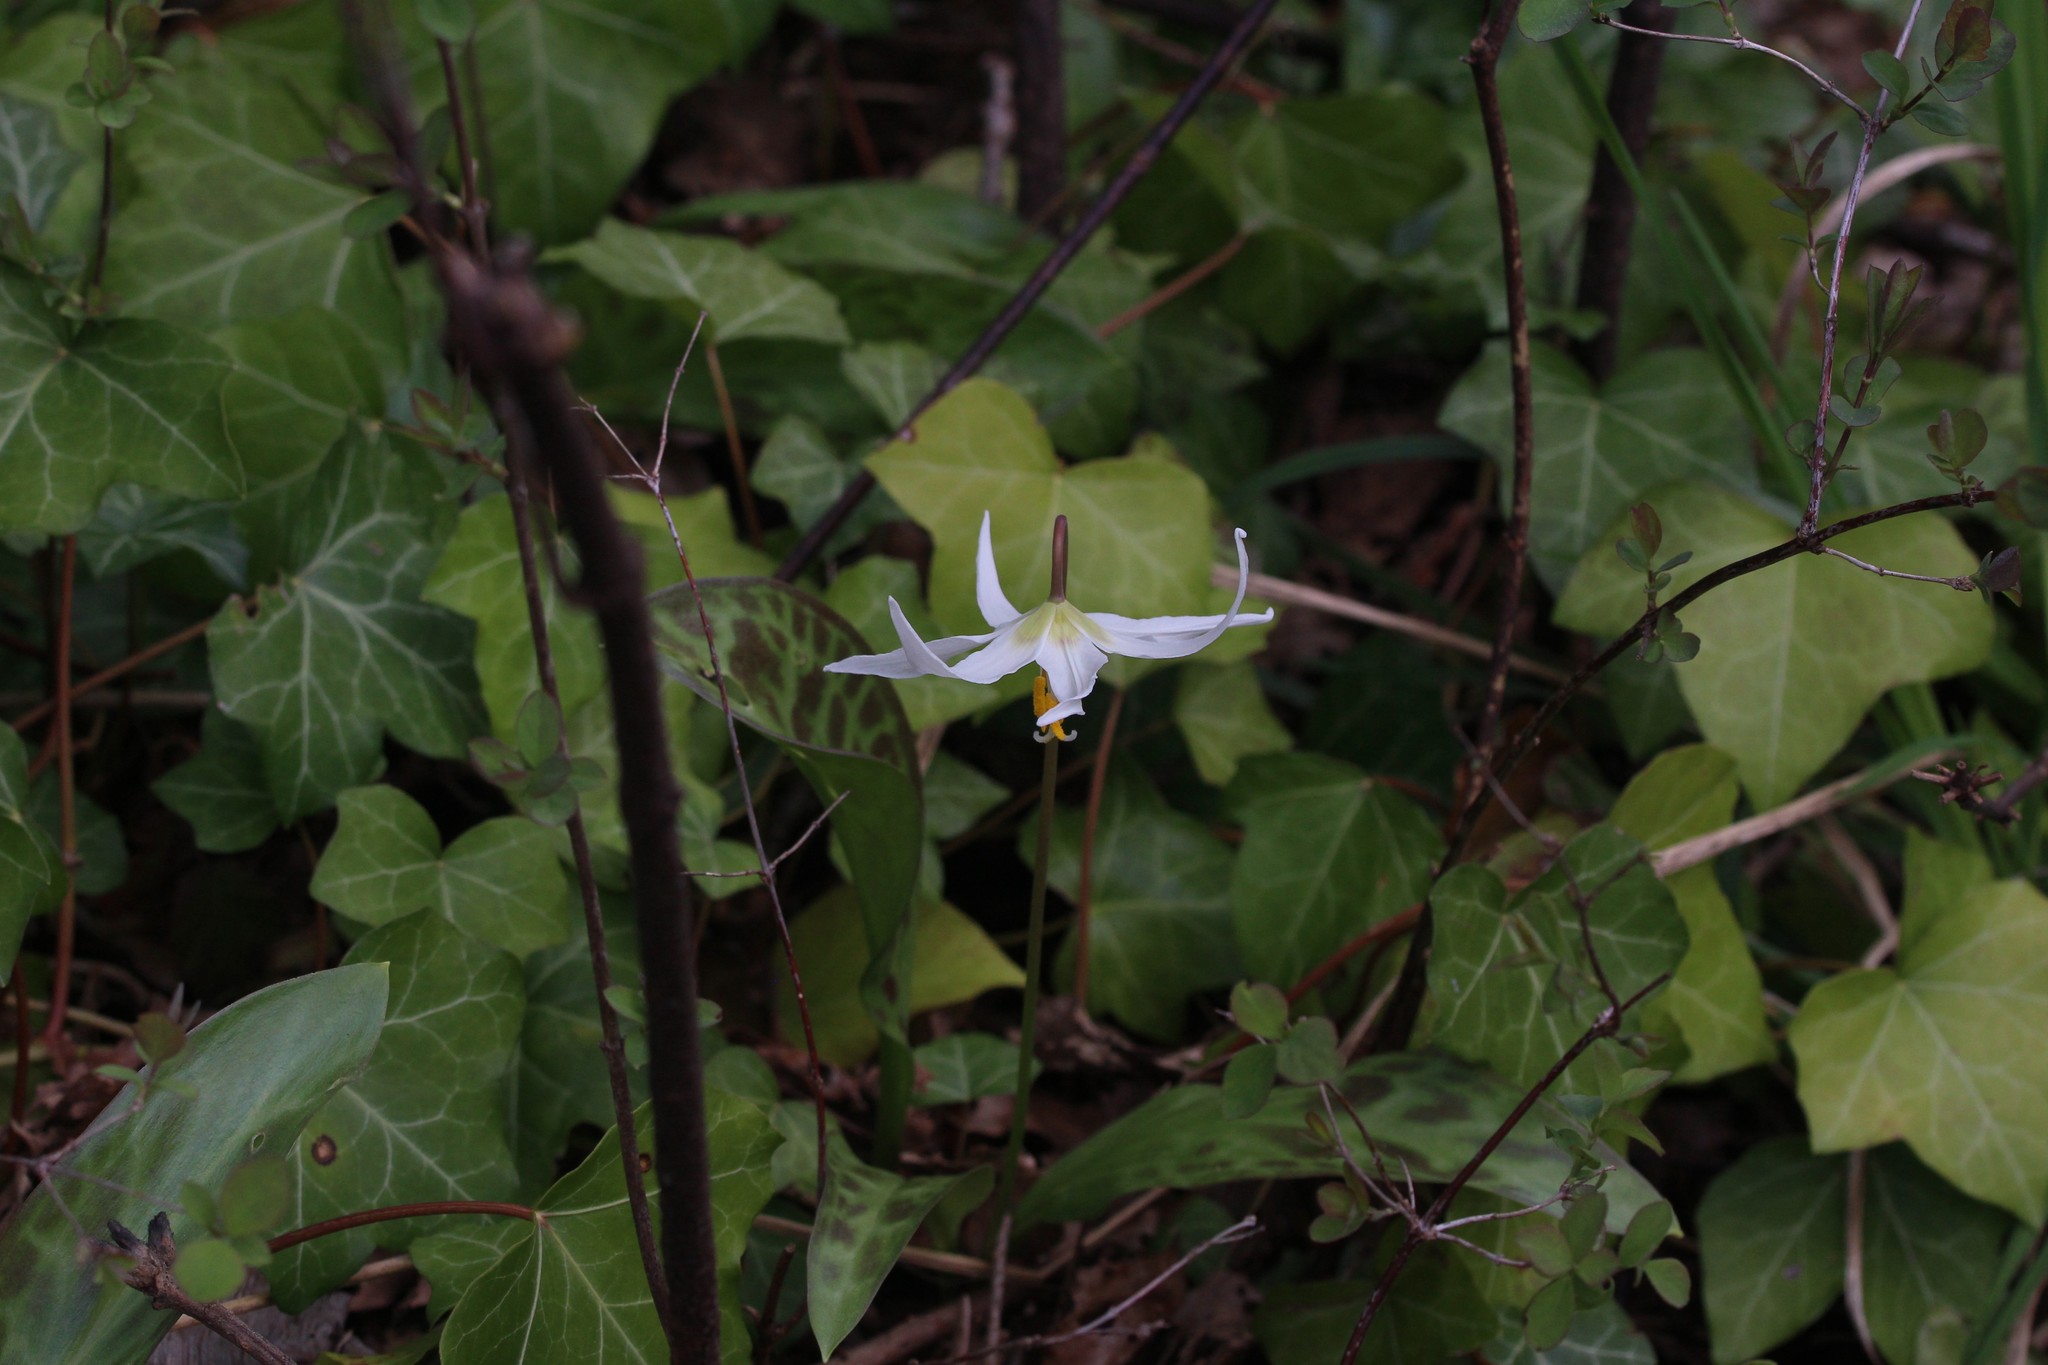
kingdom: Plantae
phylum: Tracheophyta
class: Liliopsida
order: Liliales
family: Liliaceae
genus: Erythronium
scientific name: Erythronium oregonum
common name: Giant adder's-tongue
